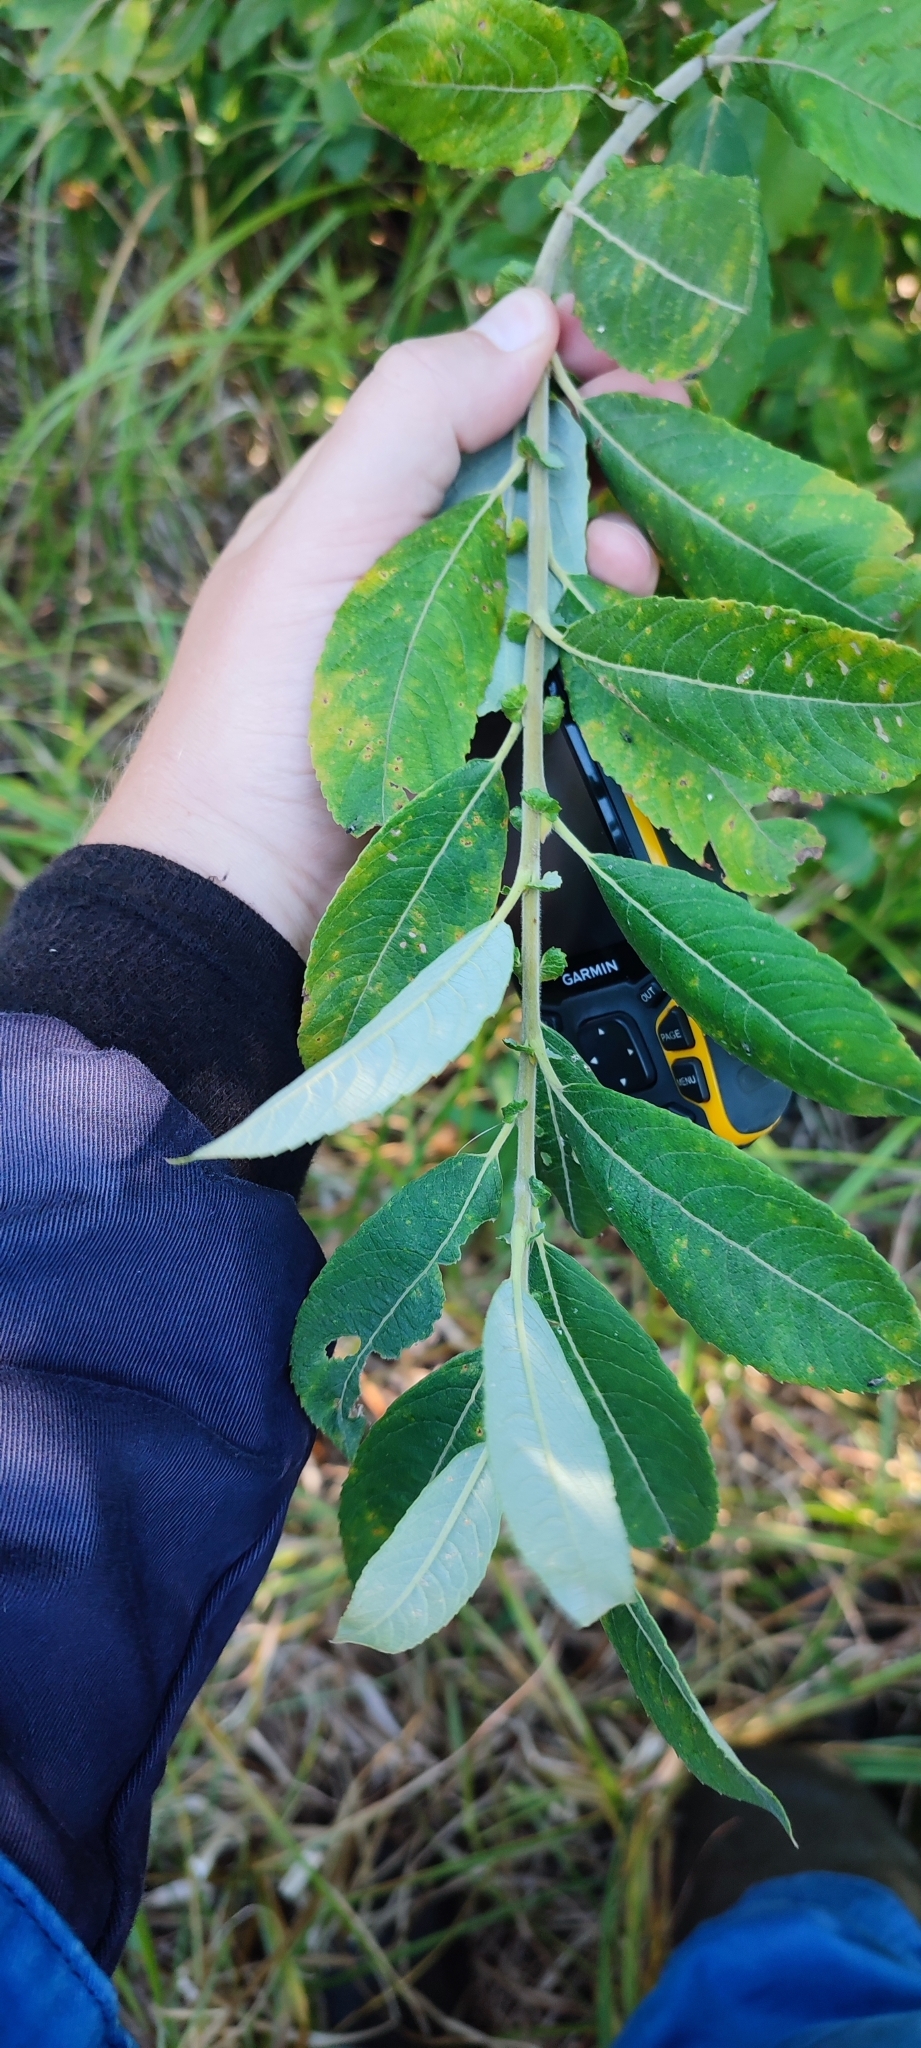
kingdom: Plantae
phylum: Tracheophyta
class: Magnoliopsida
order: Malpighiales
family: Salicaceae
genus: Salix
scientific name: Salix cinerea
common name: Common sallow
